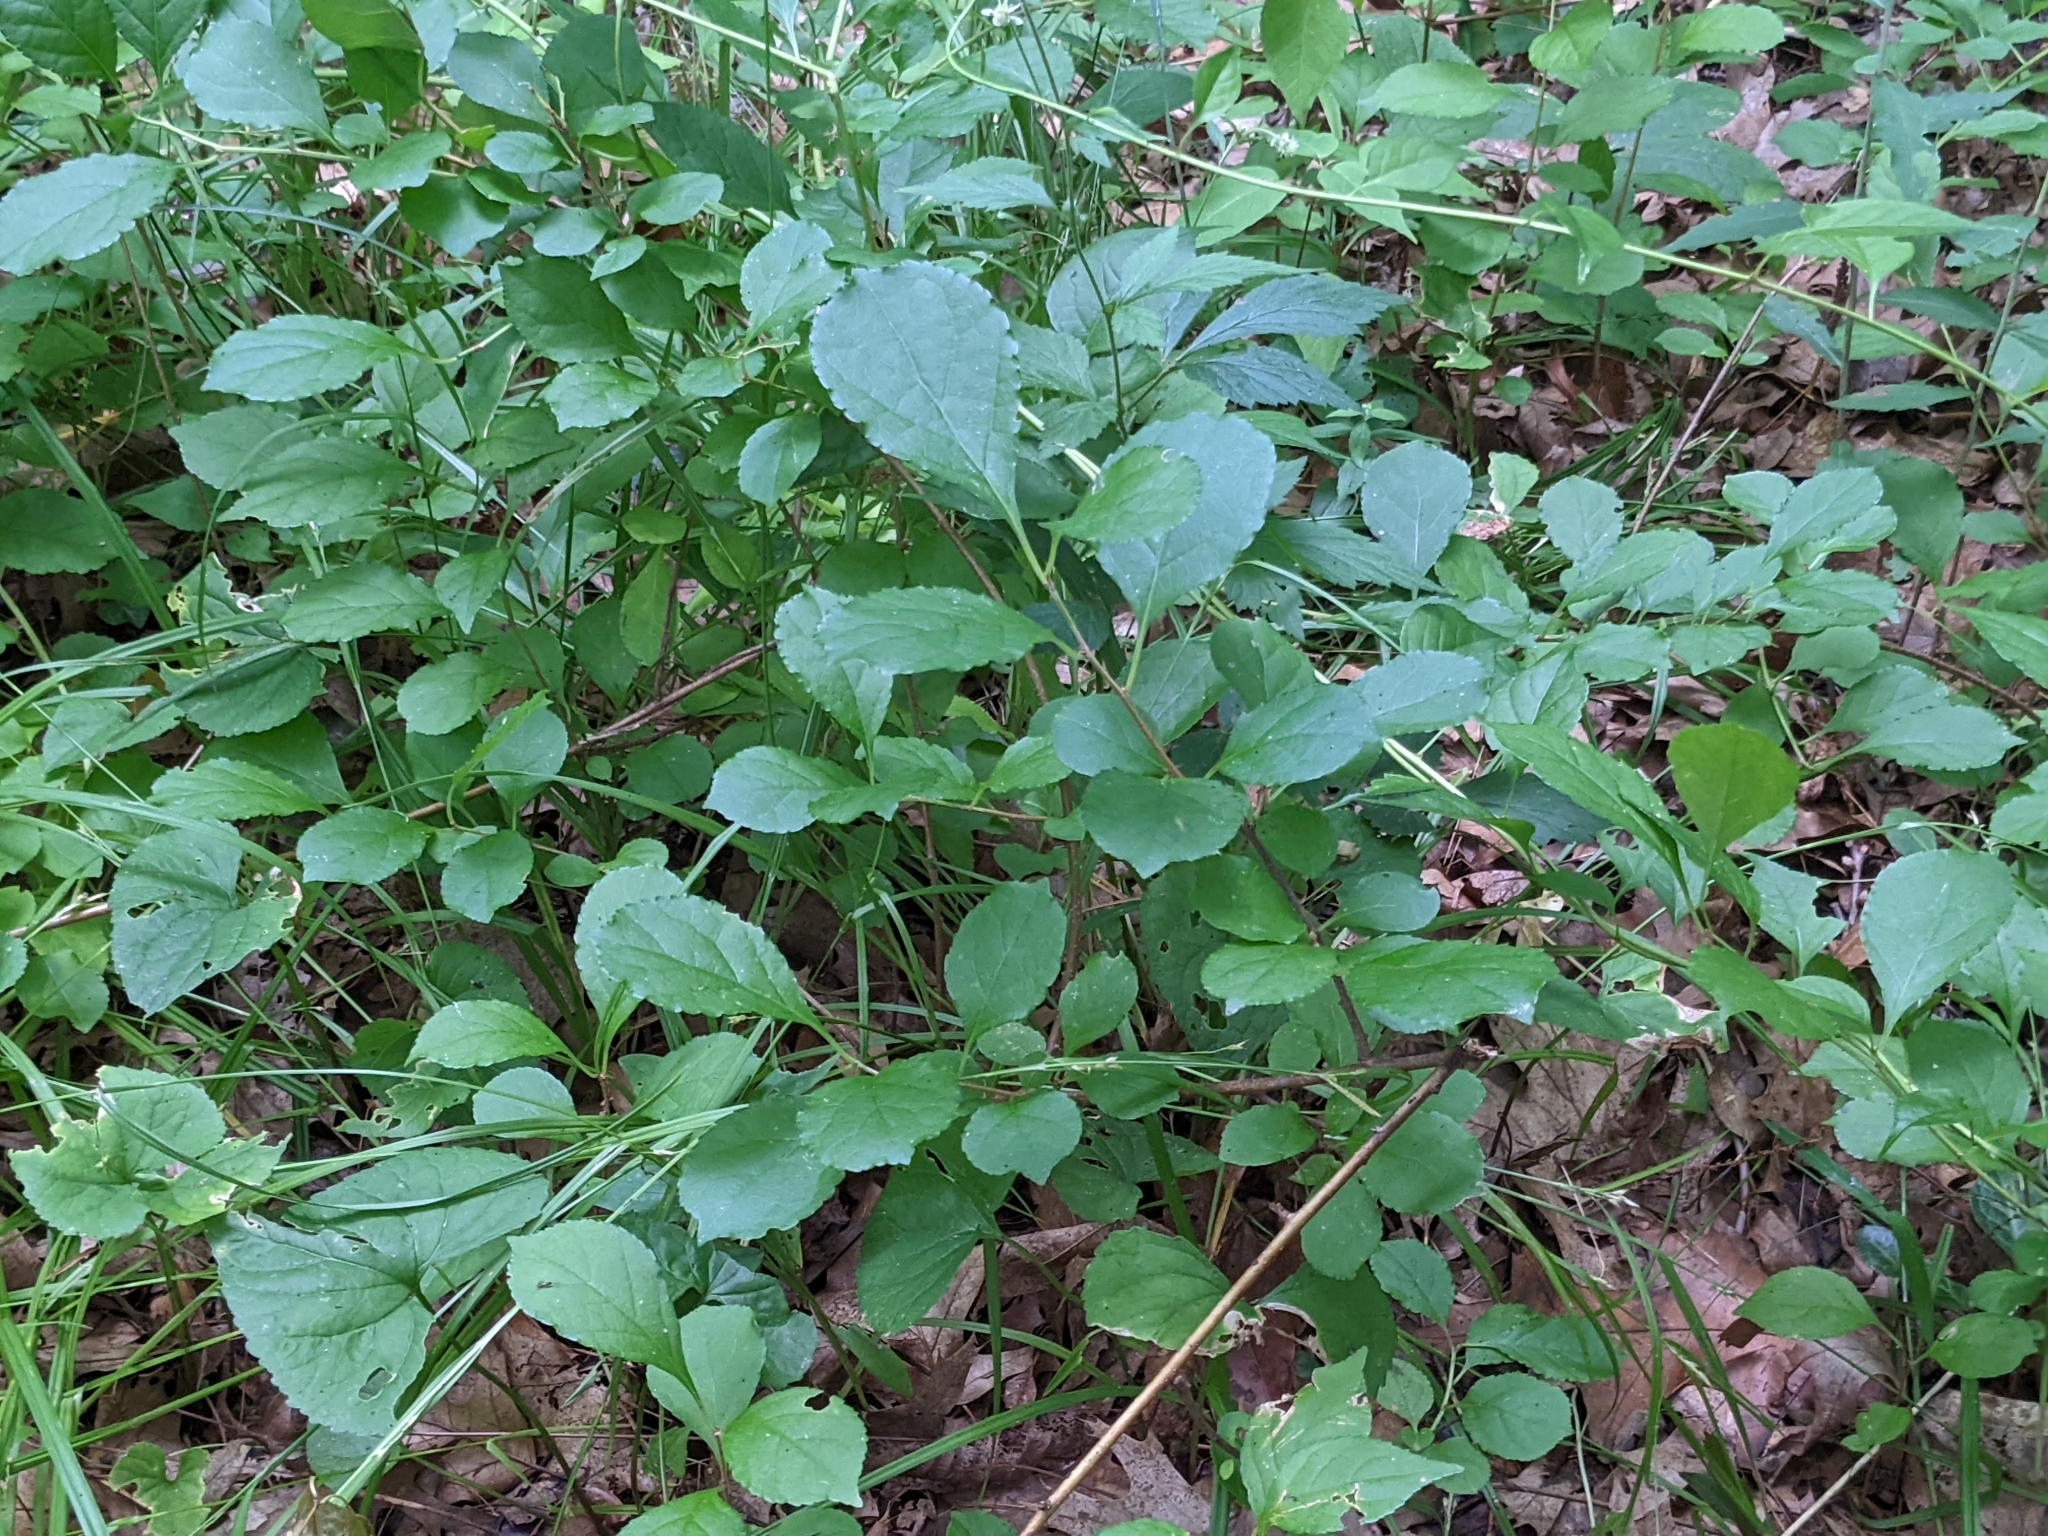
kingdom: Plantae
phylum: Tracheophyta
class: Magnoliopsida
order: Celastrales
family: Celastraceae
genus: Celastrus
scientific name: Celastrus orbiculatus
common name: Oriental bittersweet
